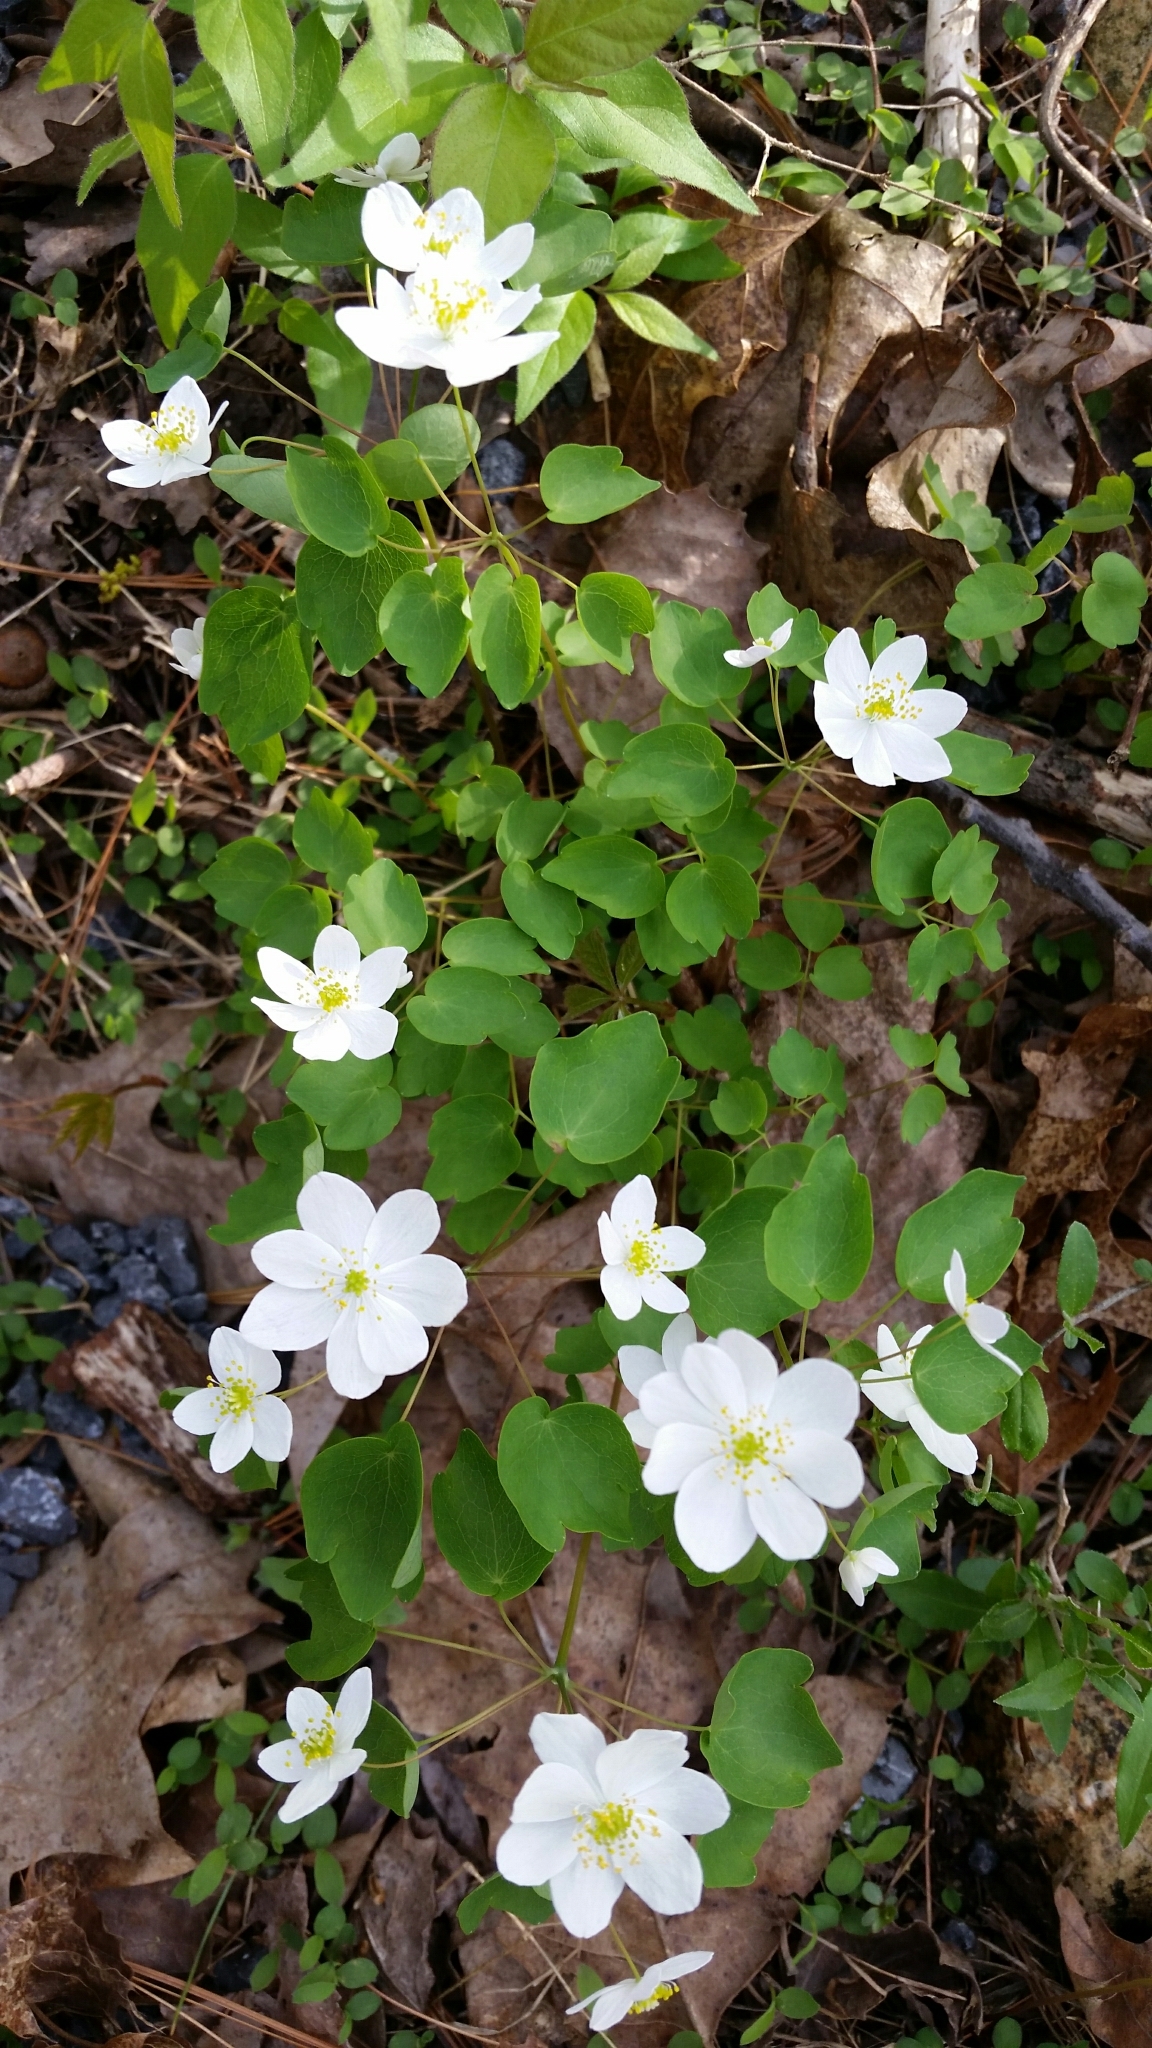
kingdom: Plantae
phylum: Tracheophyta
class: Magnoliopsida
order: Ranunculales
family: Ranunculaceae
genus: Thalictrum
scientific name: Thalictrum thalictroides
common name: Rue-anemone
